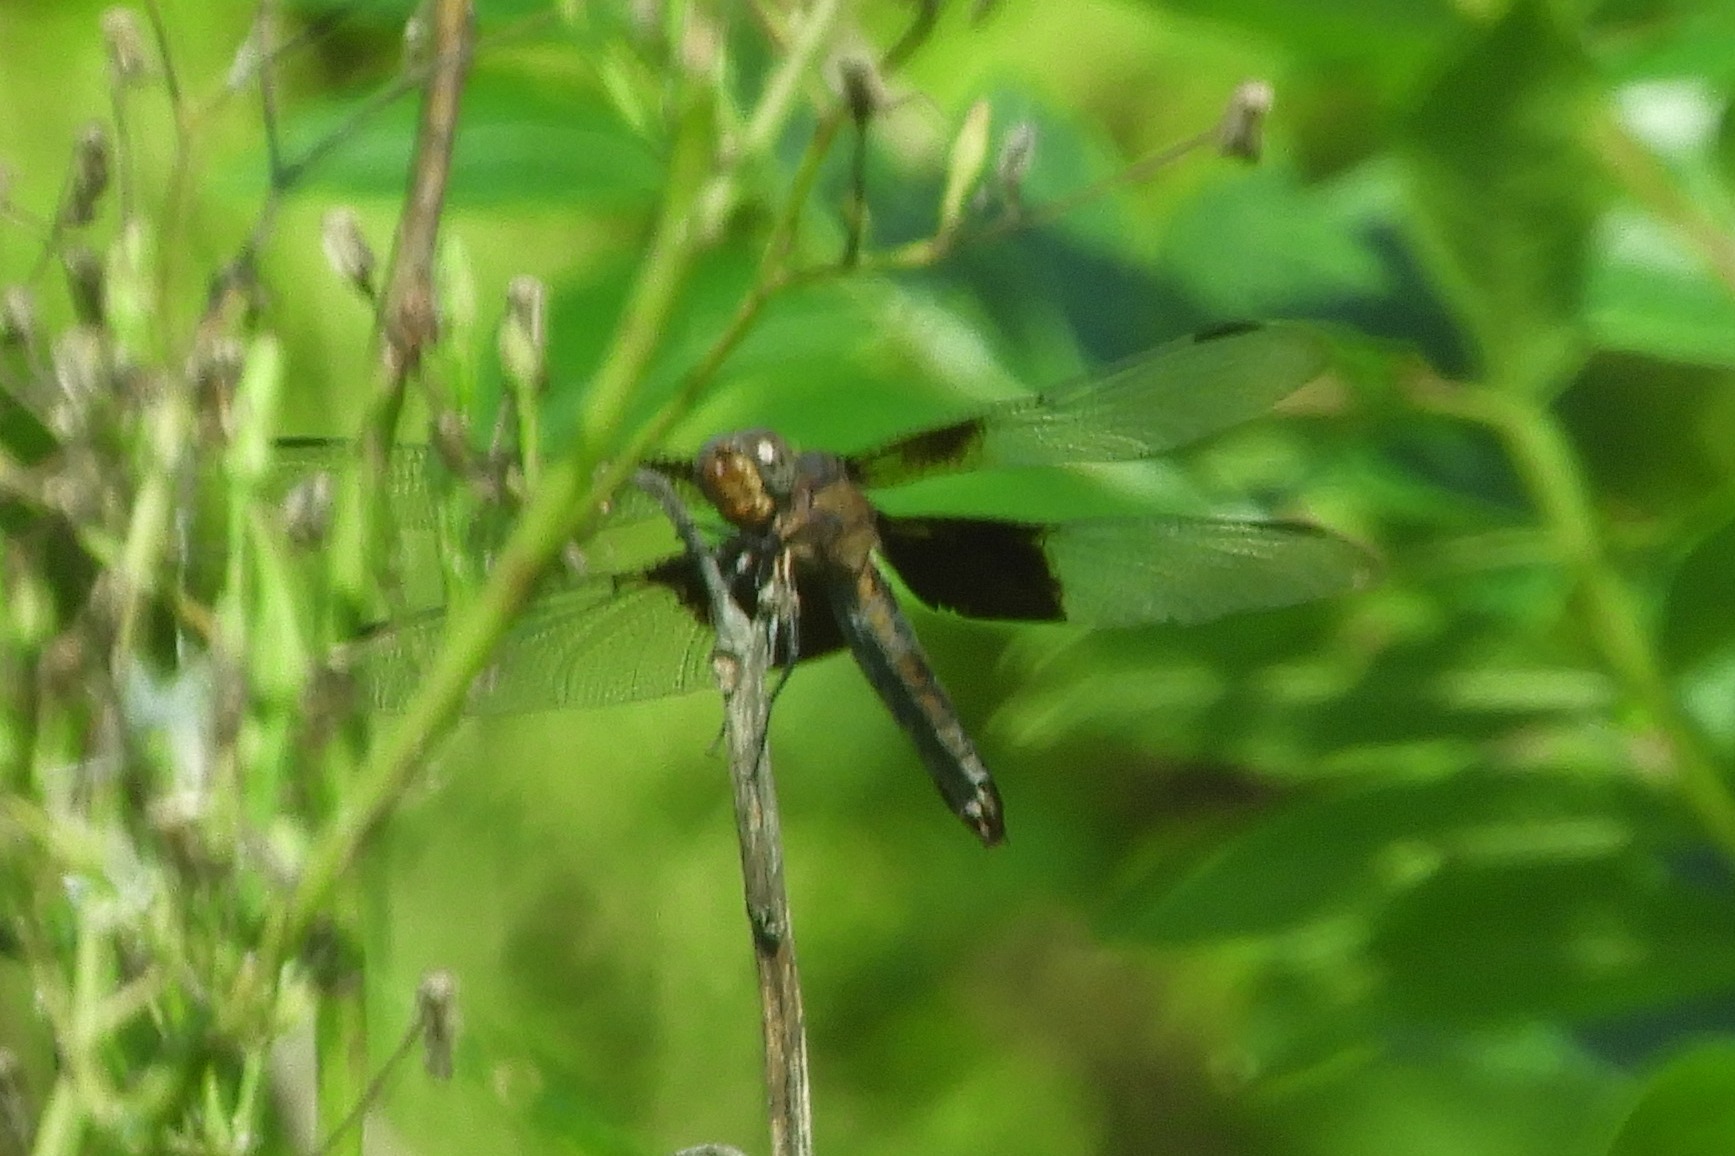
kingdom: Animalia
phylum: Arthropoda
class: Insecta
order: Odonata
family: Libellulidae
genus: Libellula
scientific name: Libellula luctuosa
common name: Widow skimmer
